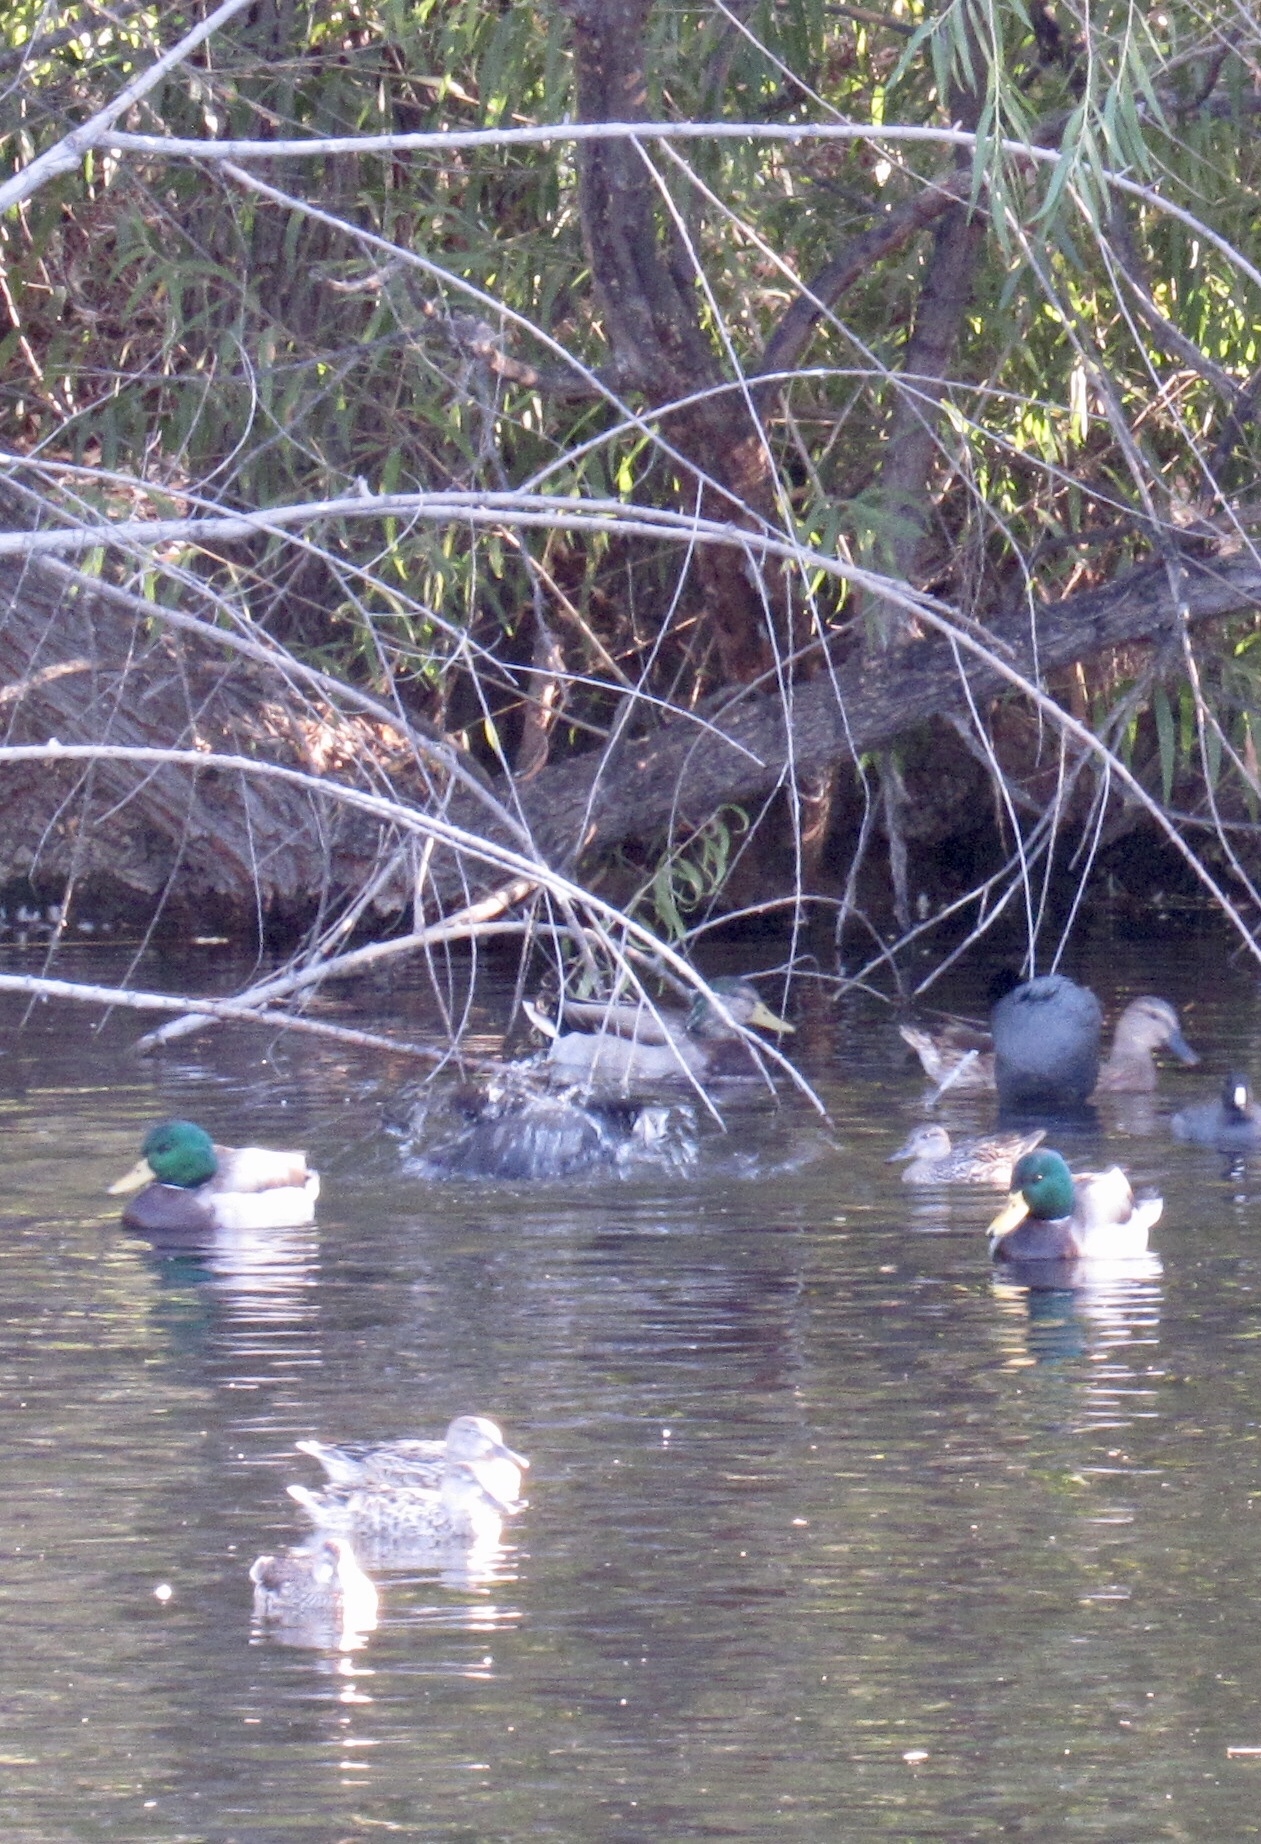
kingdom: Animalia
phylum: Chordata
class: Aves
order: Anseriformes
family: Anatidae
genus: Anas
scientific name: Anas platyrhynchos
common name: Mallard
